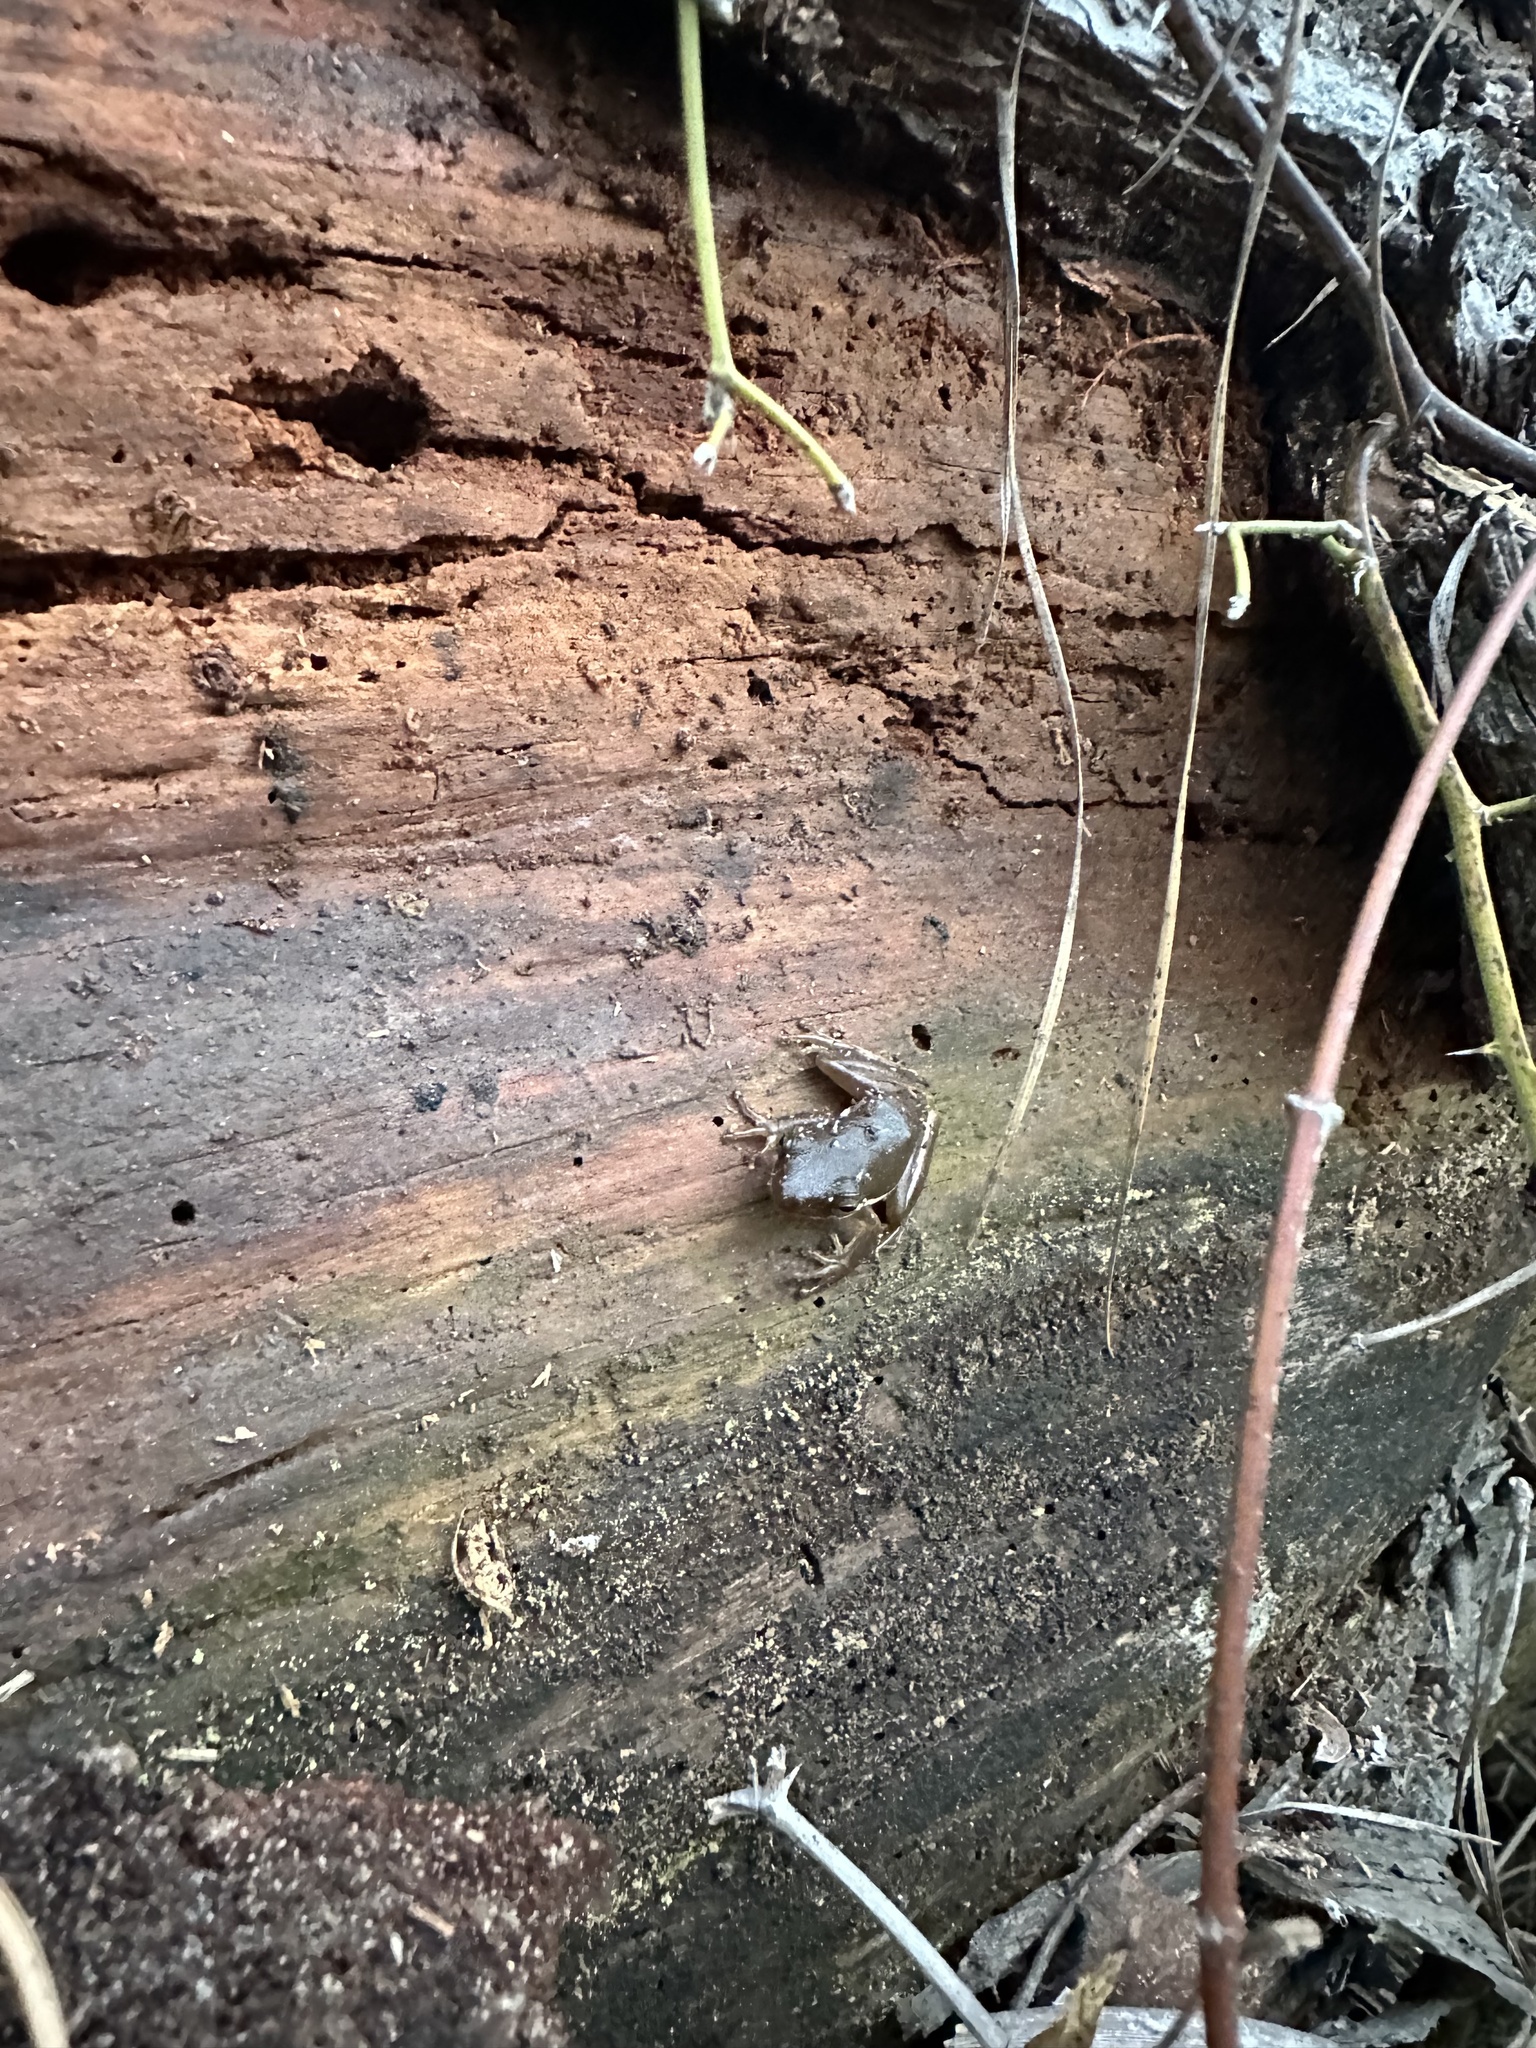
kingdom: Animalia
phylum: Chordata
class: Amphibia
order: Anura
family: Hylidae
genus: Dryophytes
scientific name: Dryophytes cinereus
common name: Green treefrog
